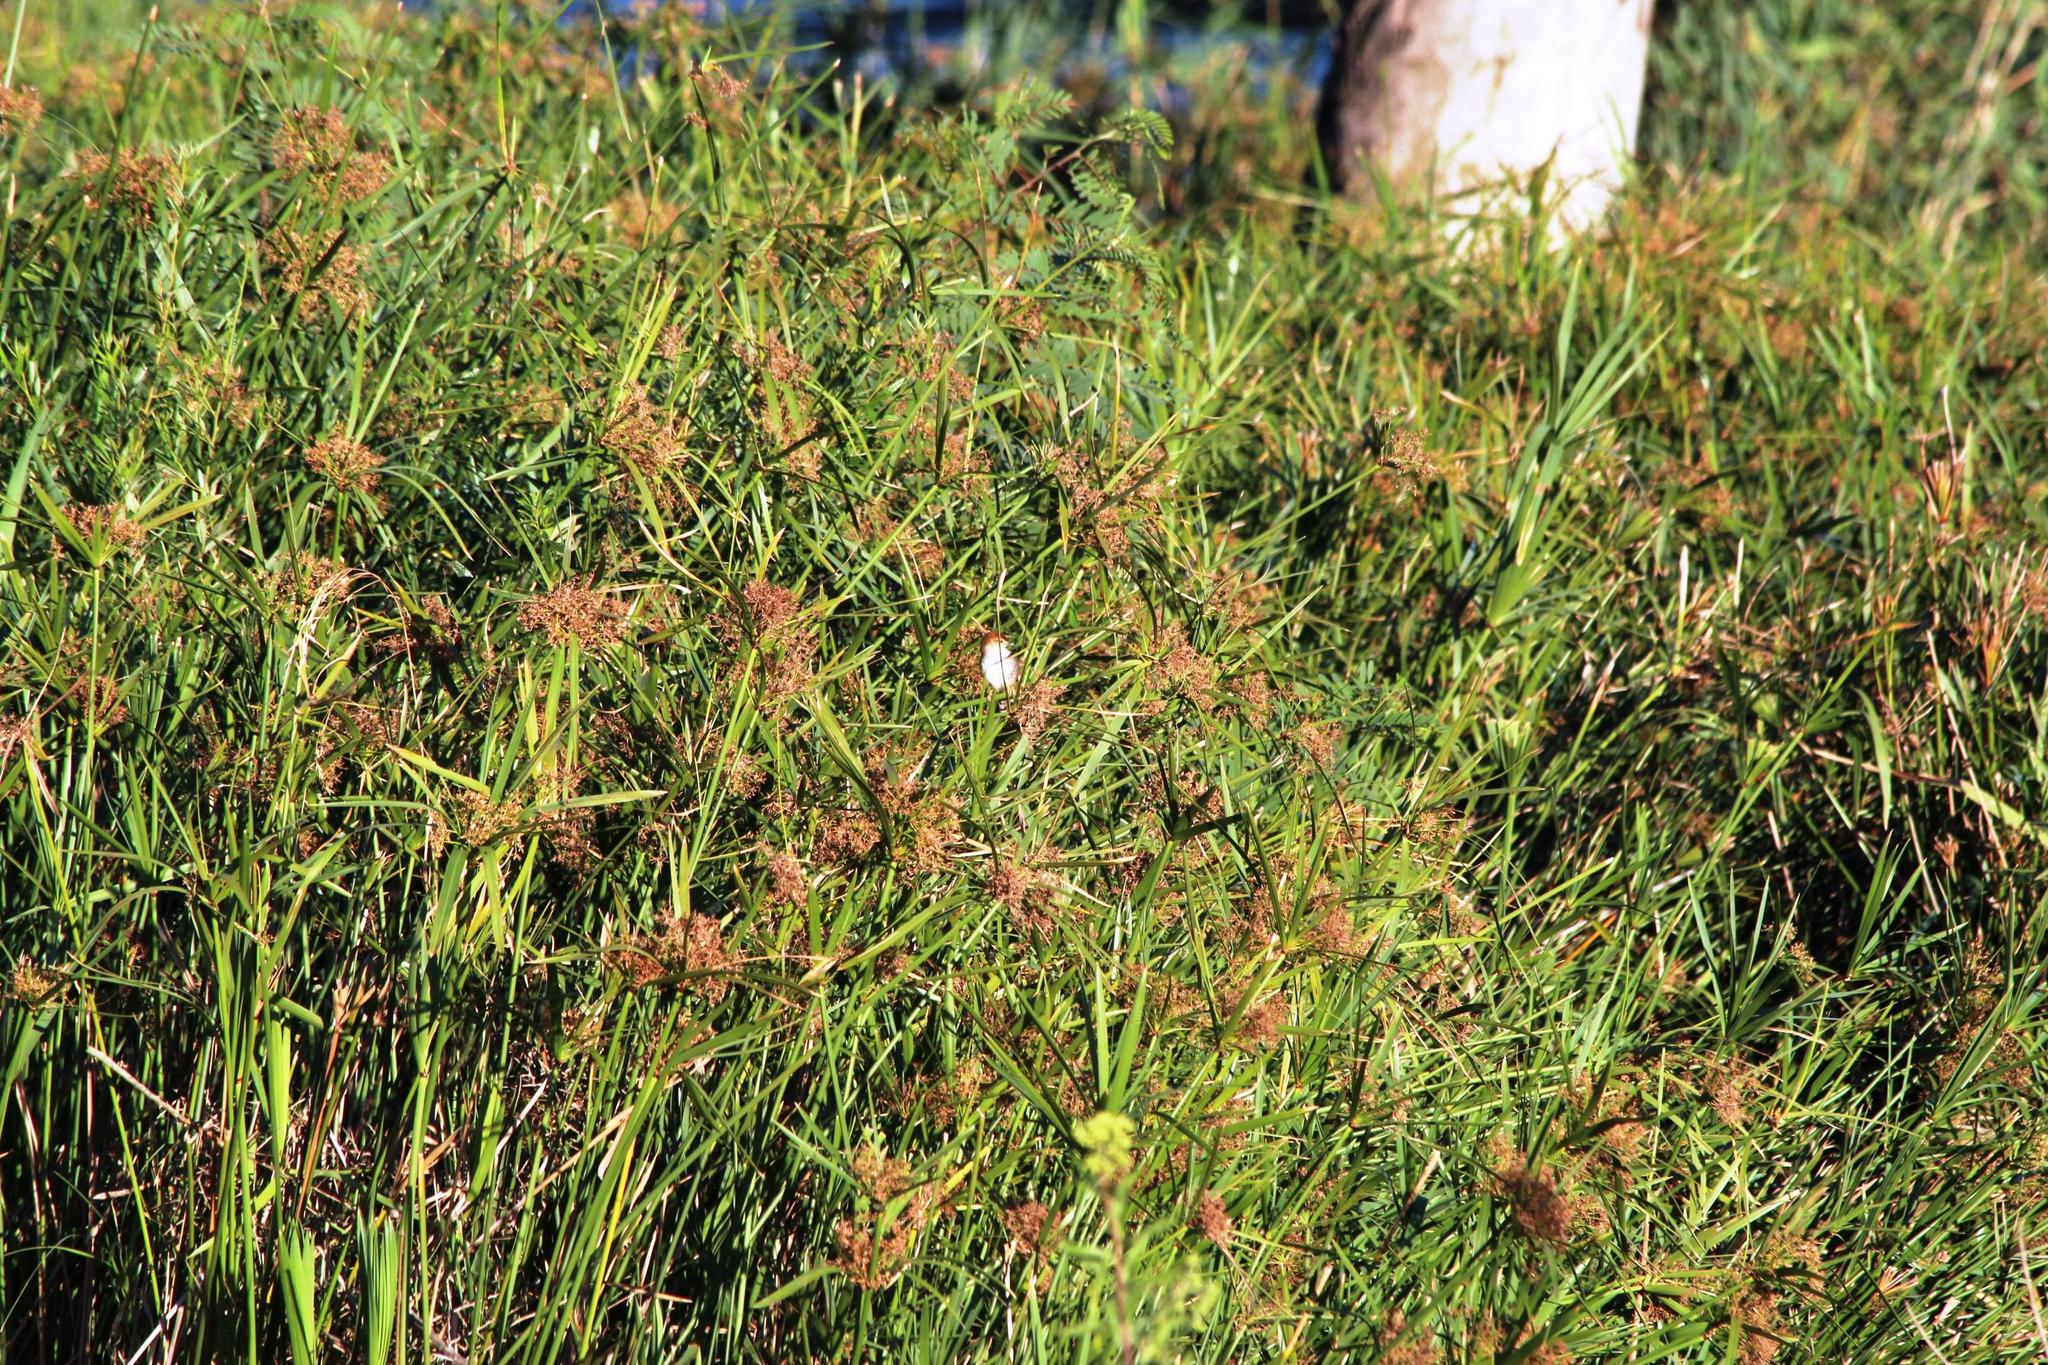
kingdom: Plantae
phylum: Tracheophyta
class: Liliopsida
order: Poales
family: Cyperaceae
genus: Cyperus
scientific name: Cyperus textilis
